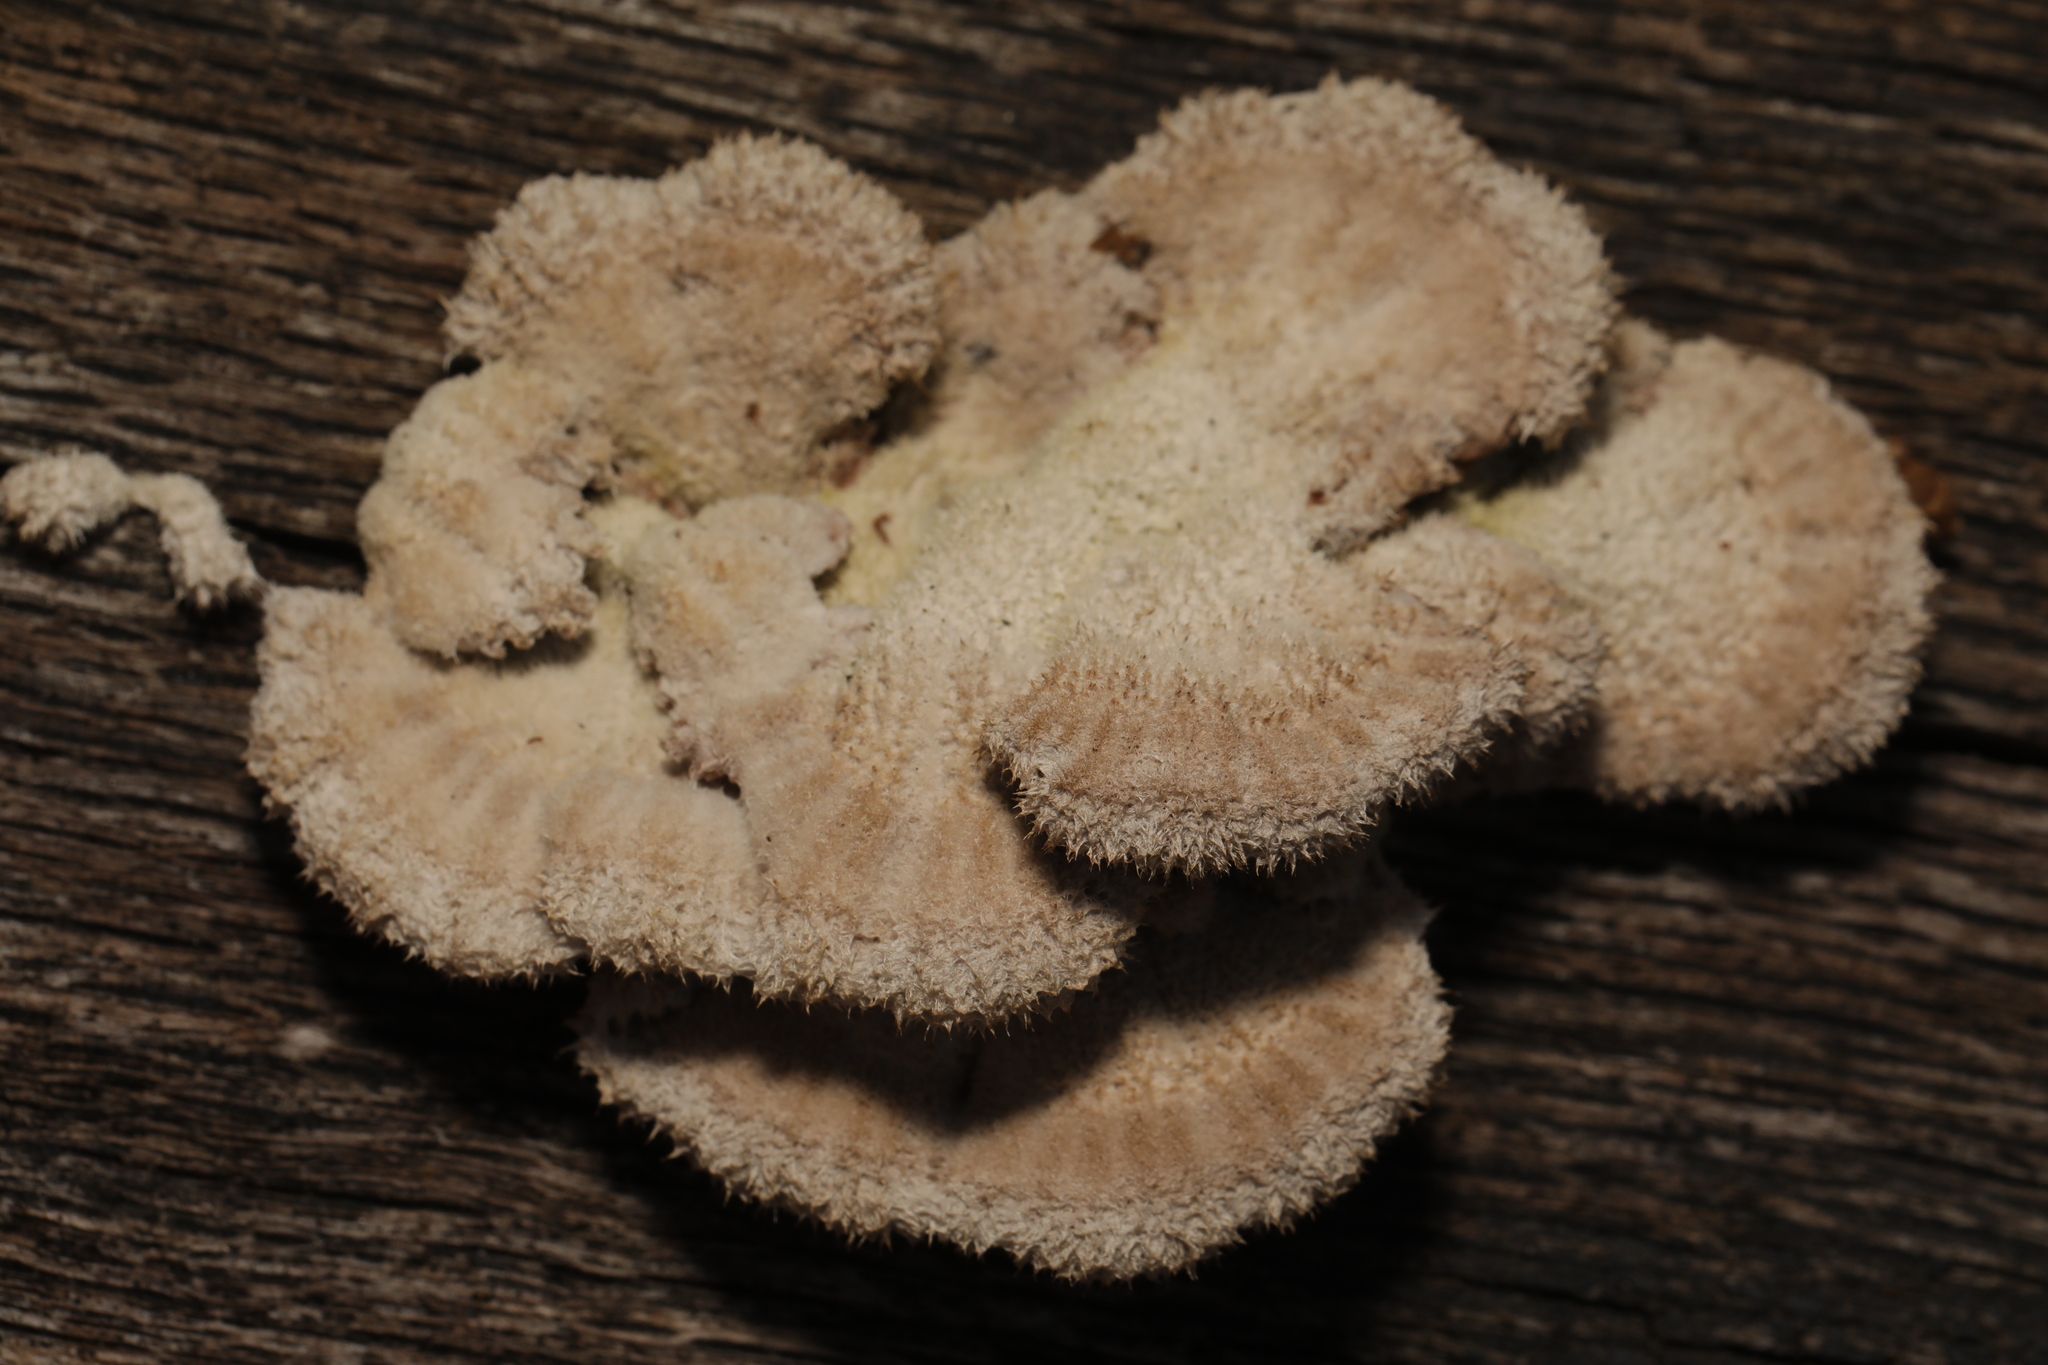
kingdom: Fungi
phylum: Basidiomycota
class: Agaricomycetes
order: Agaricales
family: Schizophyllaceae
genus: Schizophyllum
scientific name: Schizophyllum commune
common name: Common porecrust
